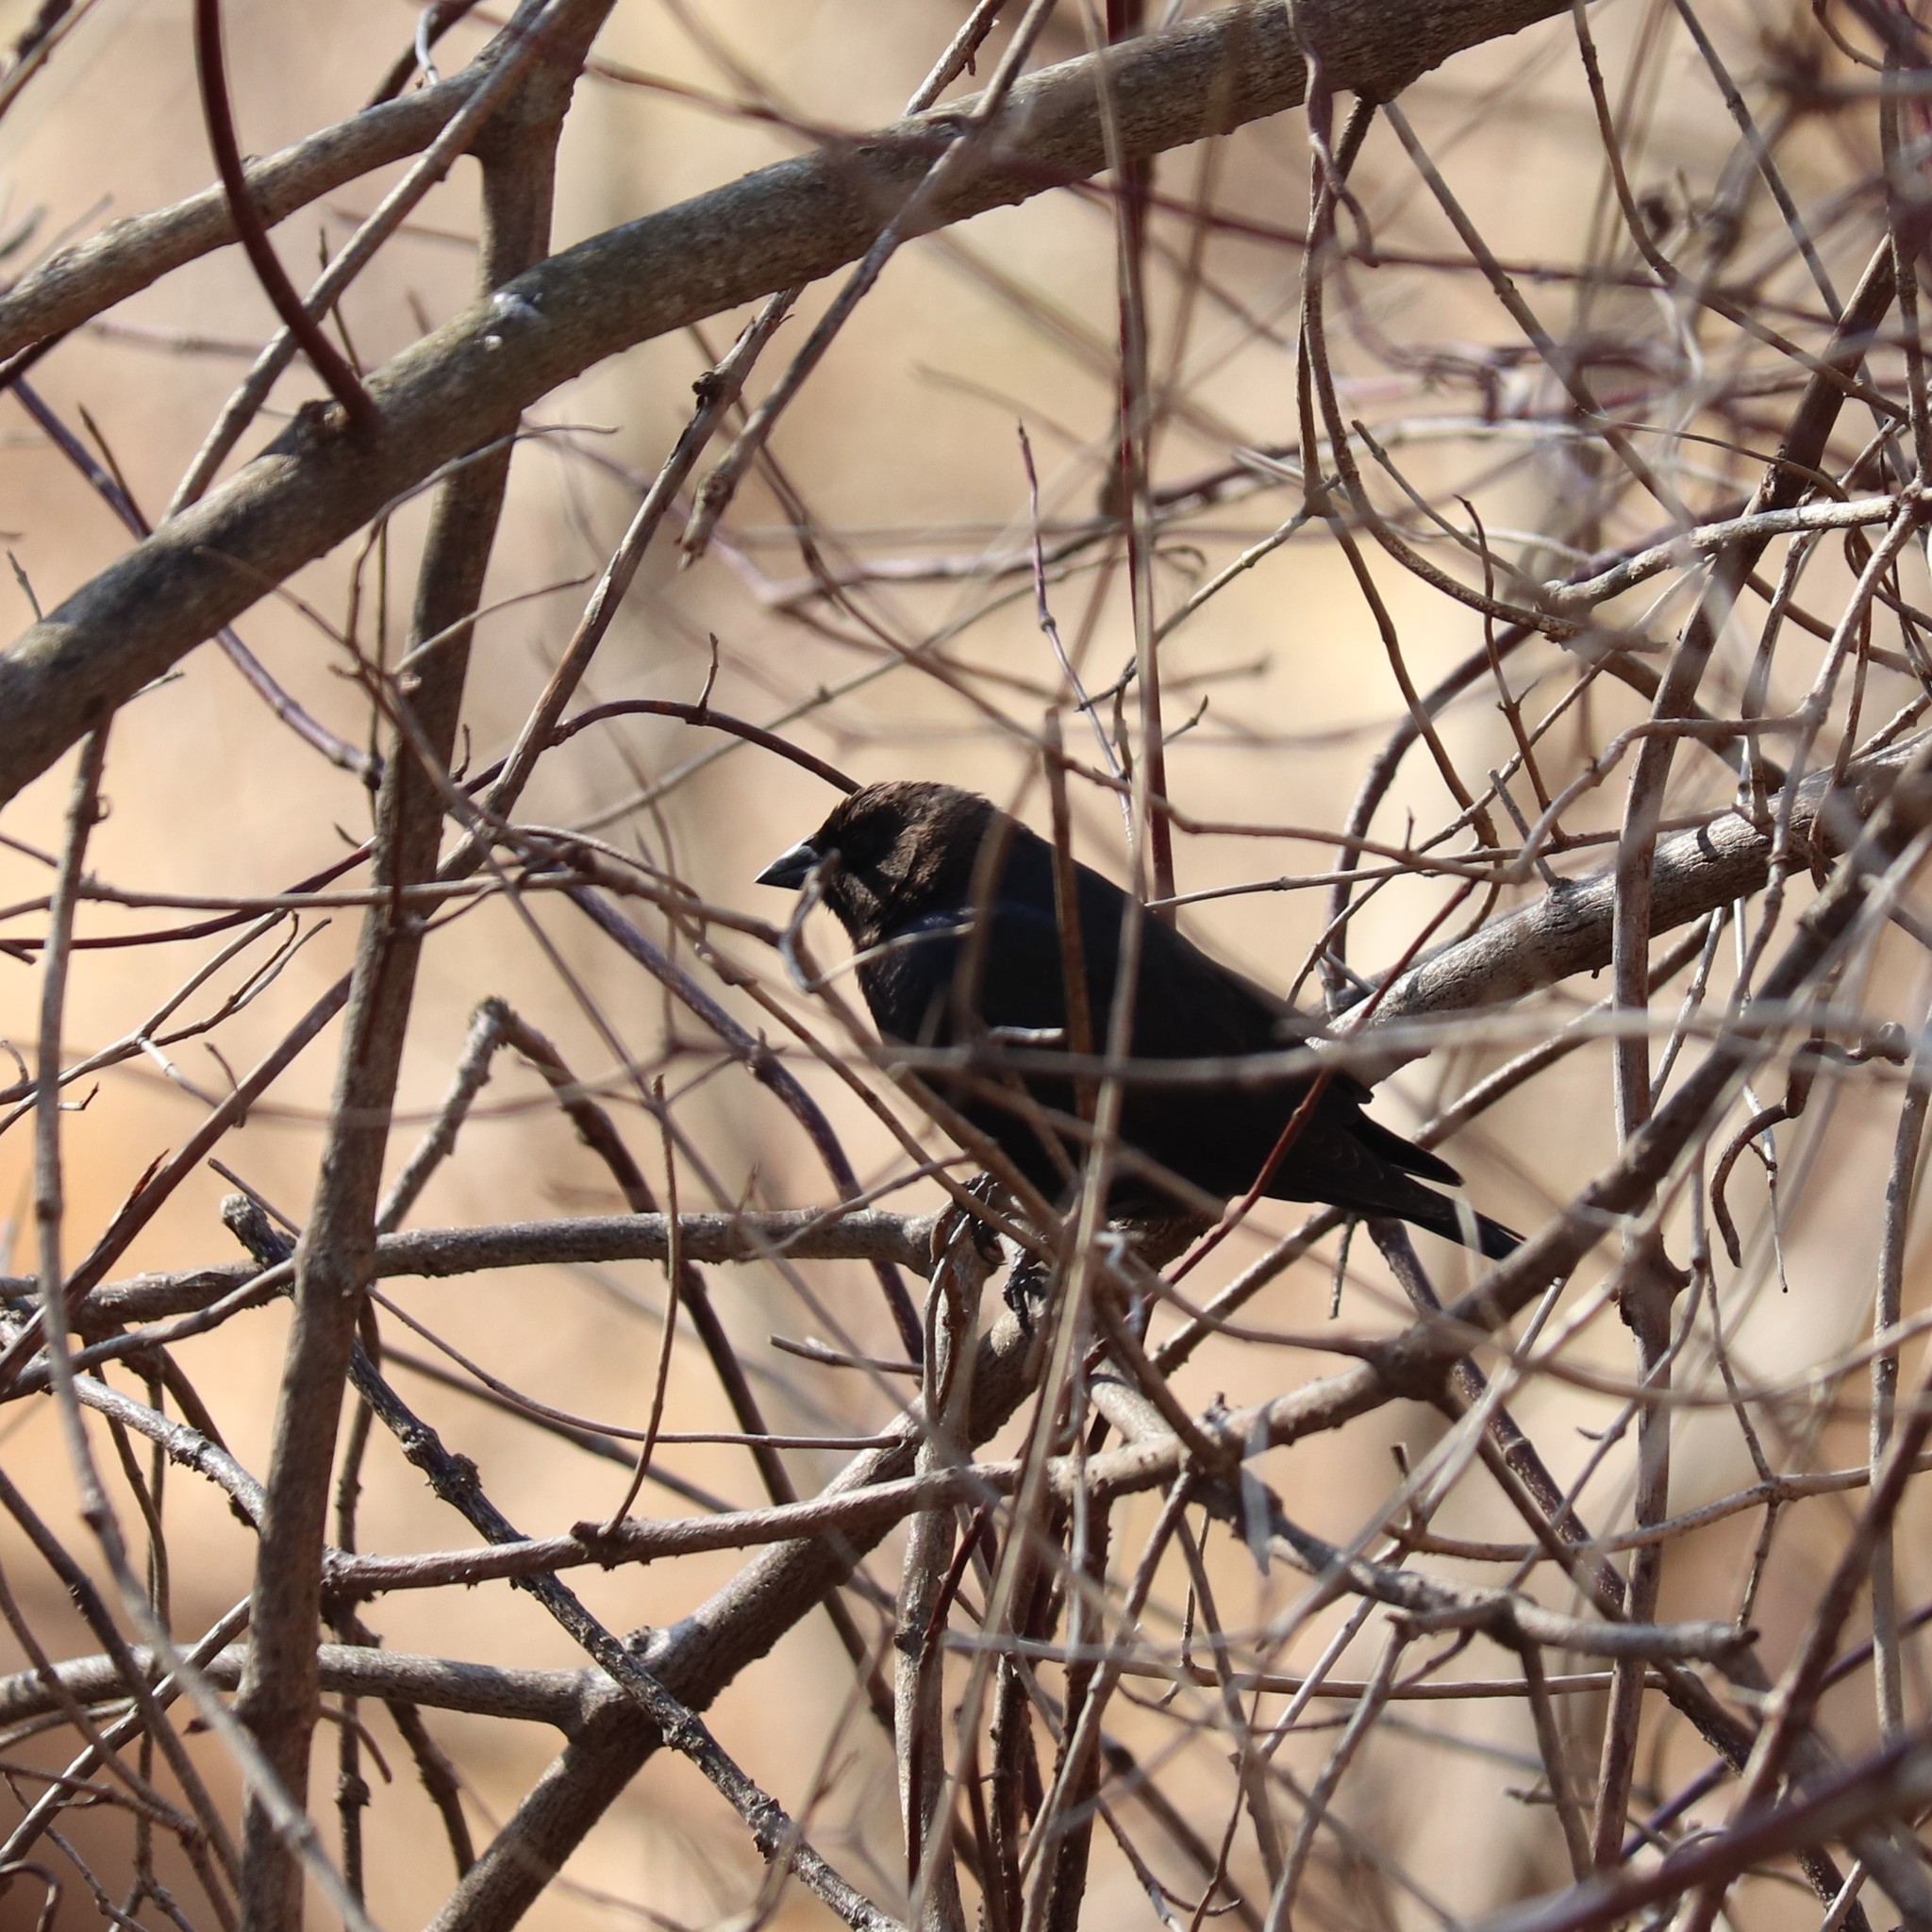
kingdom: Animalia
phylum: Chordata
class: Aves
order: Passeriformes
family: Icteridae
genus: Molothrus
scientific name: Molothrus ater
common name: Brown-headed cowbird
